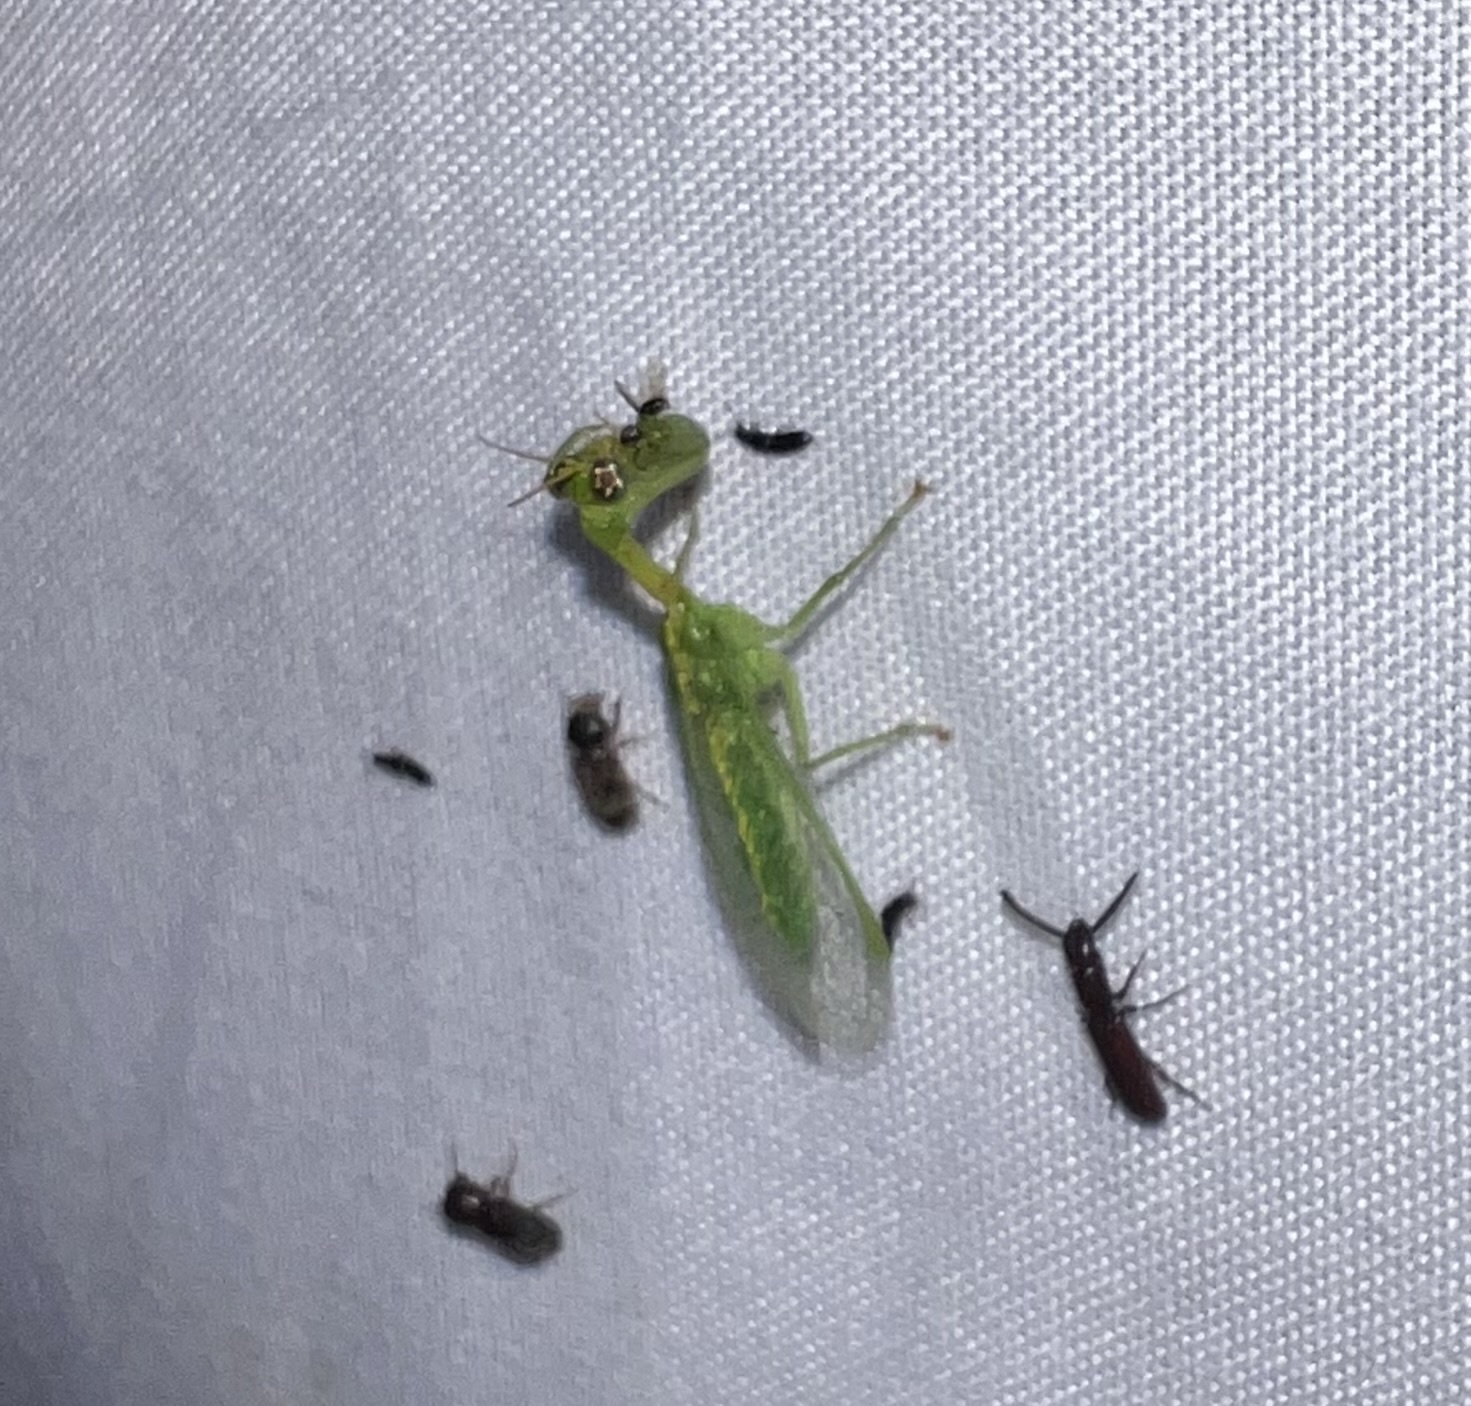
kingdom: Animalia
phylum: Arthropoda
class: Insecta
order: Neuroptera
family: Mantispidae
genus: Zeugomantispa
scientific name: Zeugomantispa minuta
